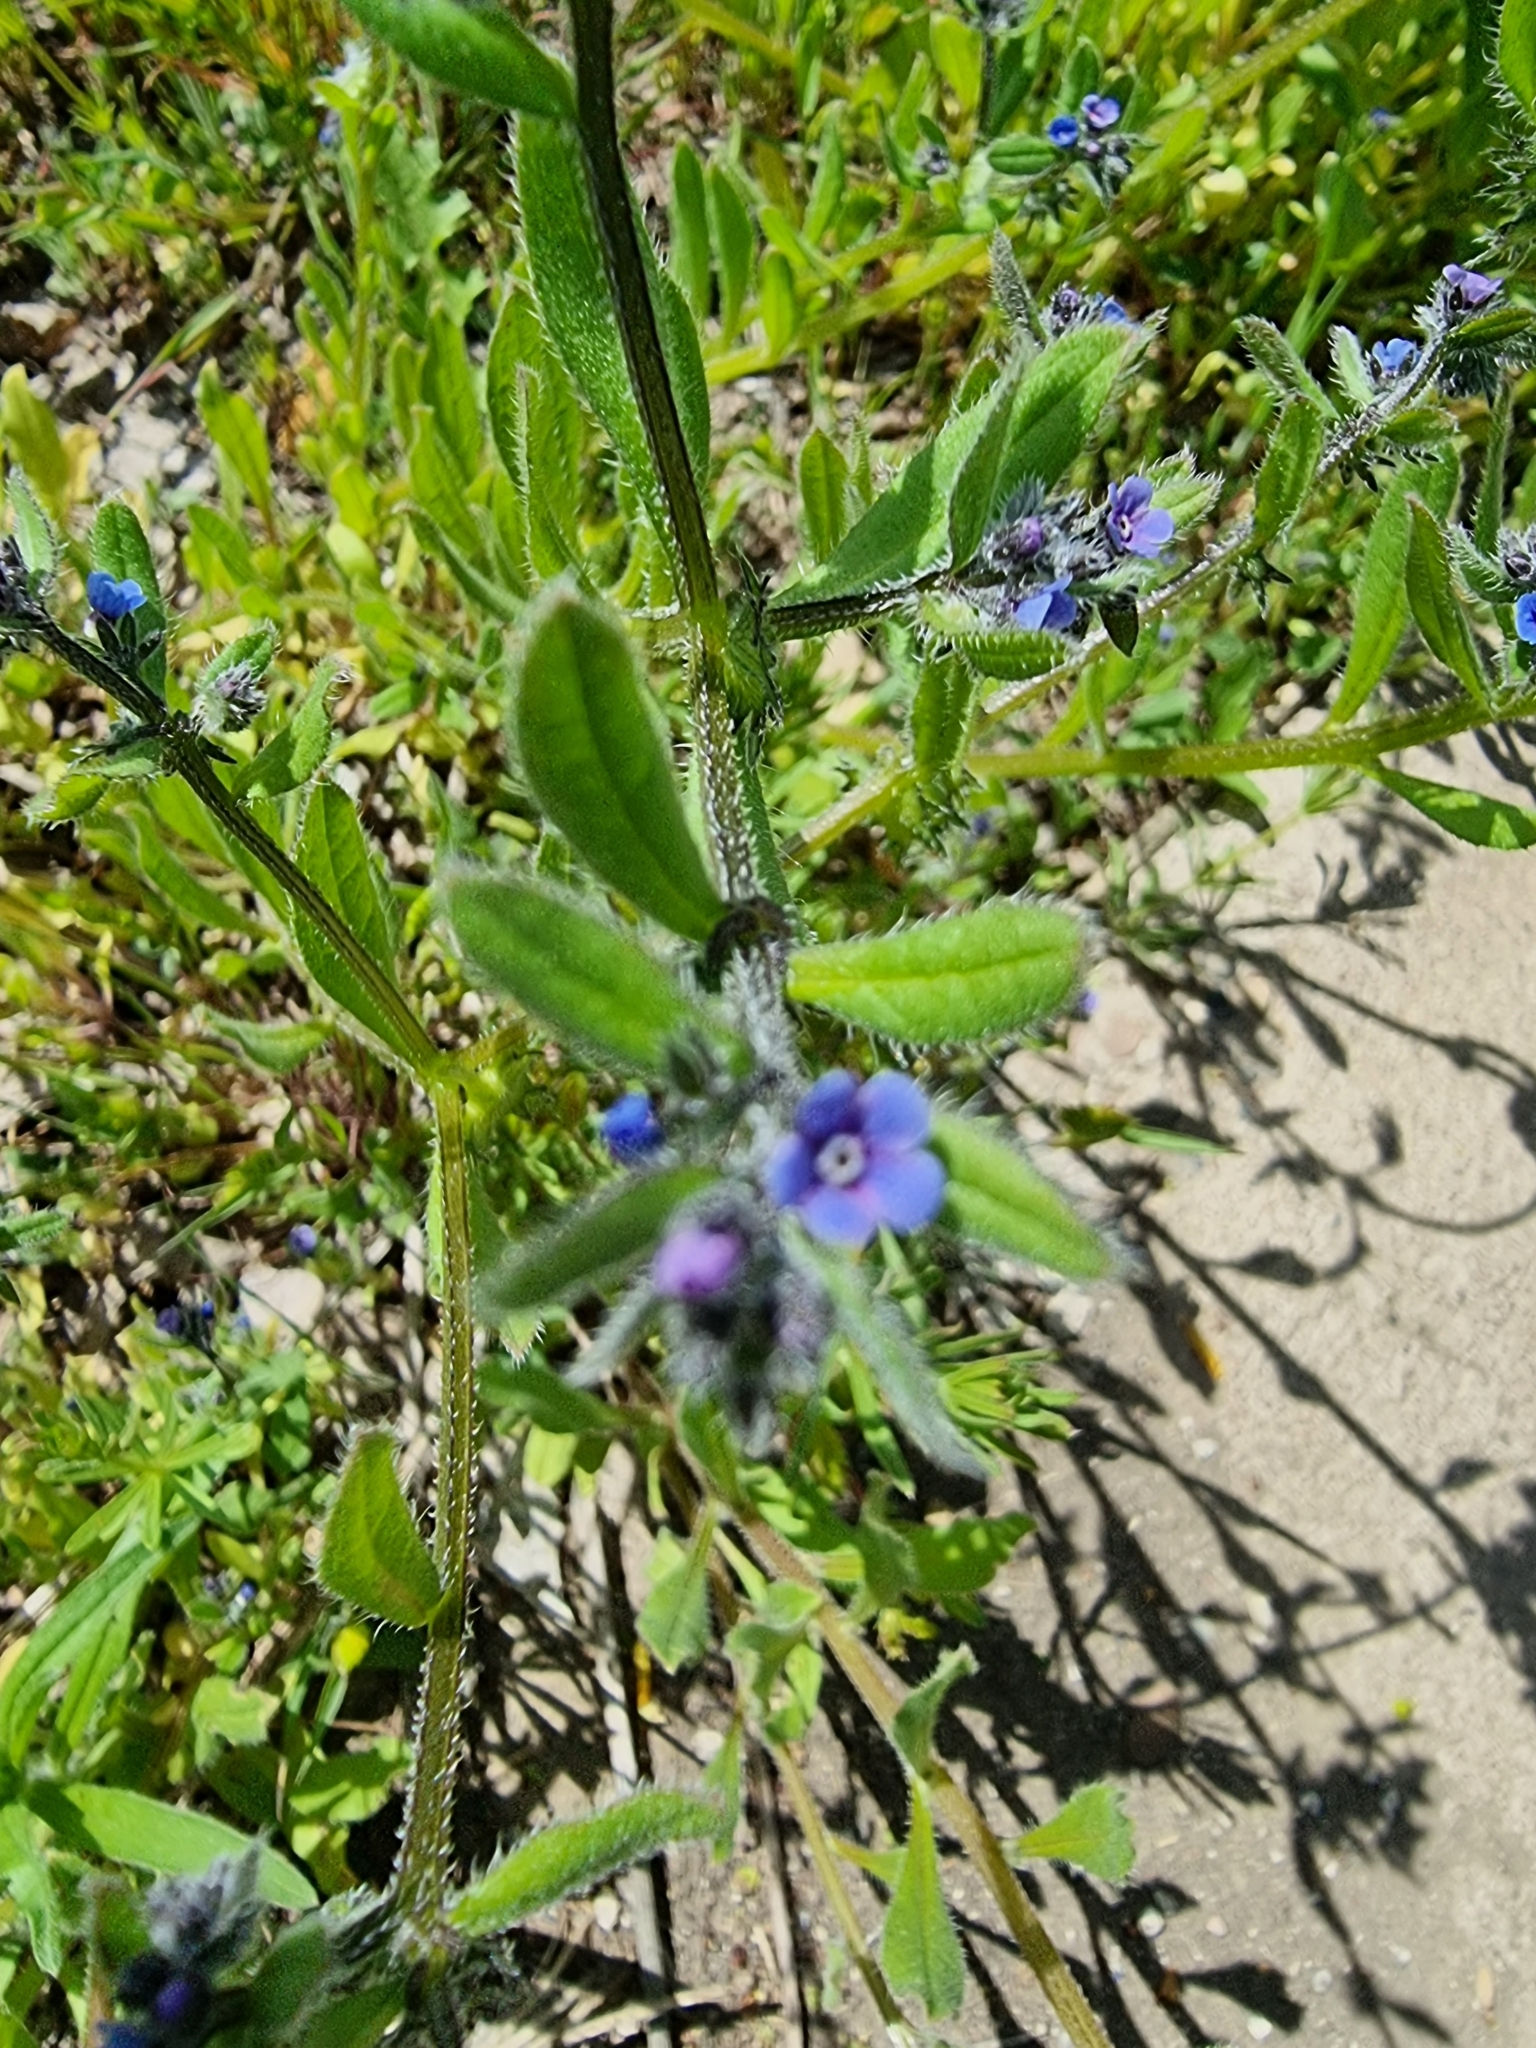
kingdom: Plantae
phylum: Tracheophyta
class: Magnoliopsida
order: Boraginales
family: Boraginaceae
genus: Asperugo
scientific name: Asperugo procumbens
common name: Madwort
